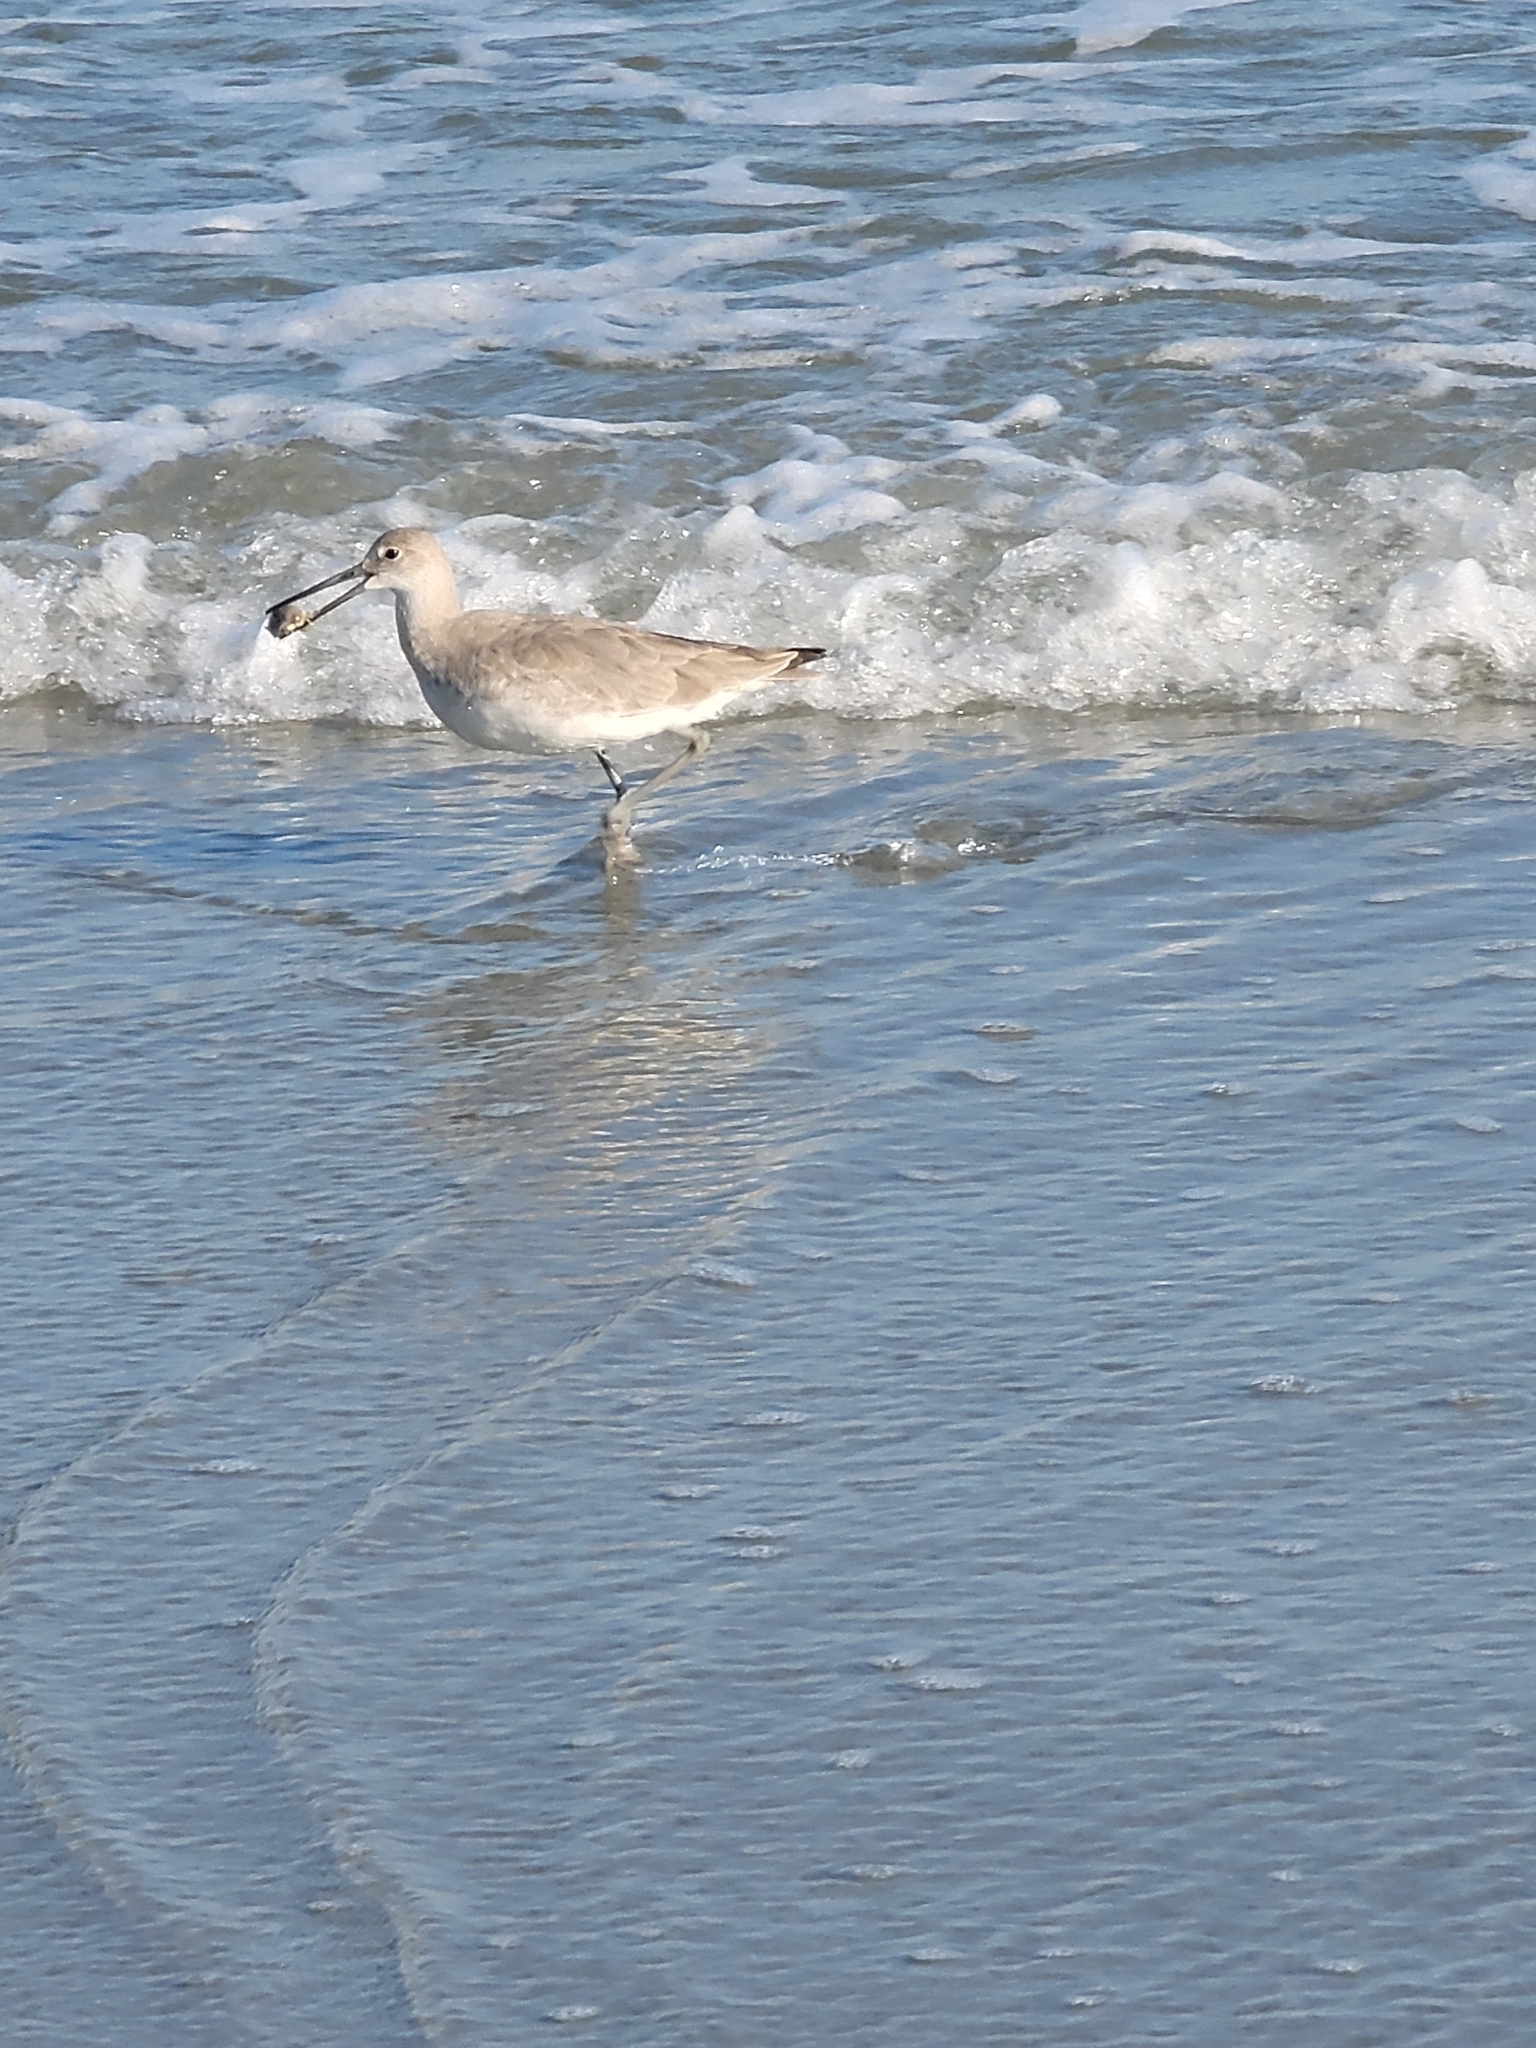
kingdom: Animalia
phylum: Chordata
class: Aves
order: Charadriiformes
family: Scolopacidae
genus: Tringa
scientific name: Tringa semipalmata
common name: Willet
